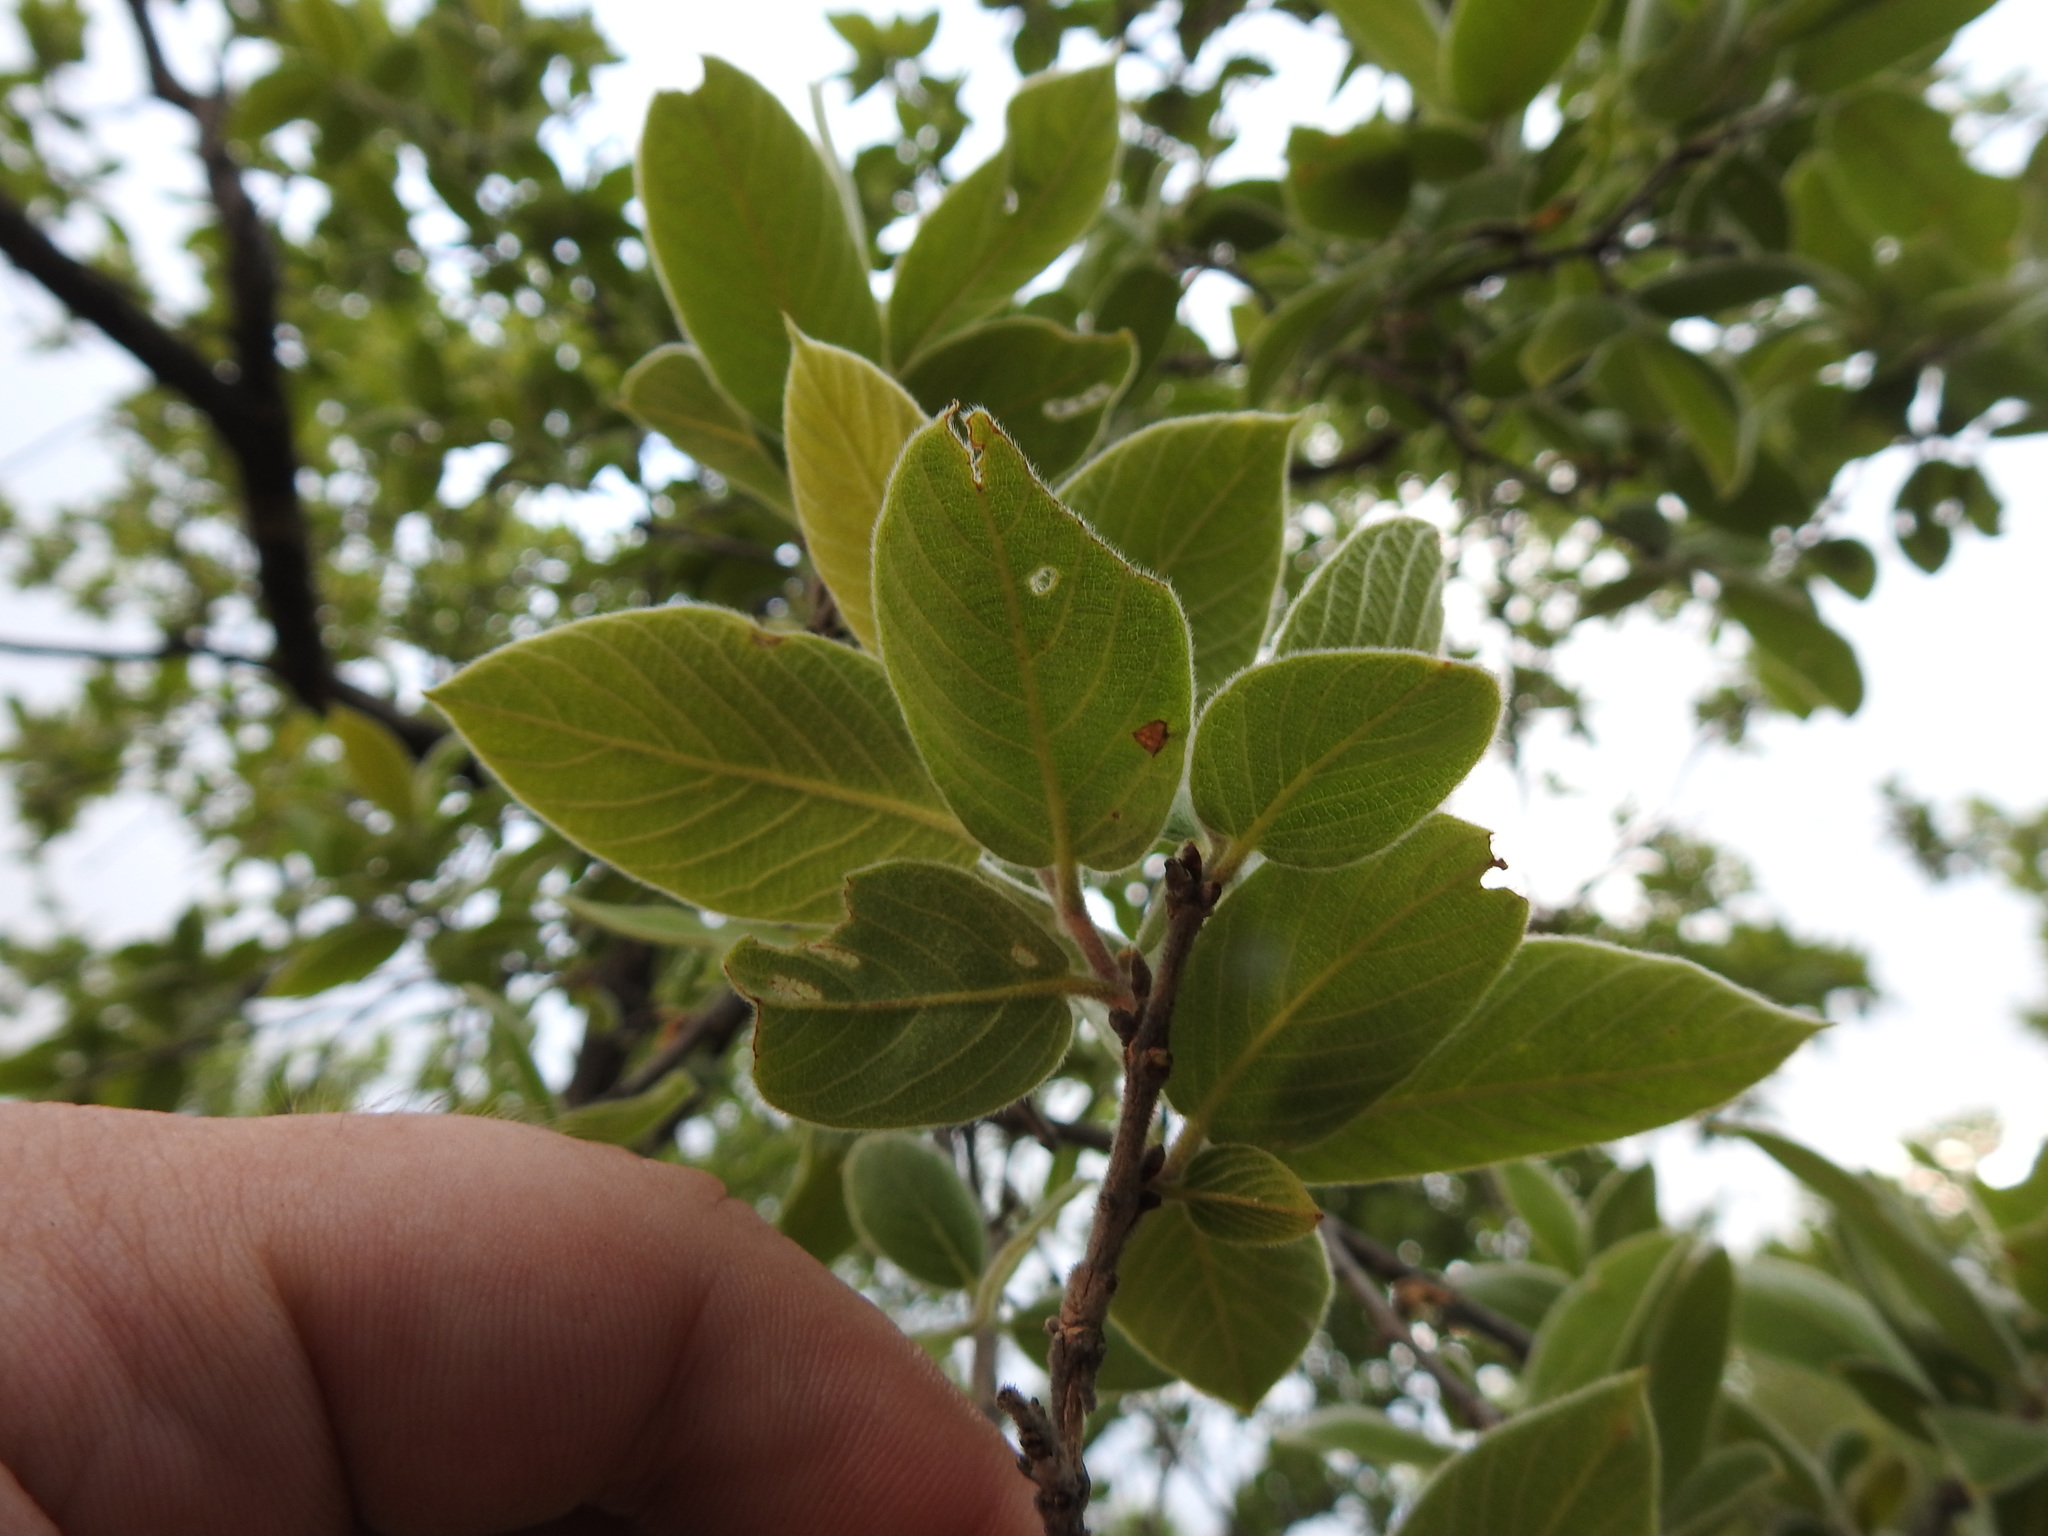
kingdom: Plantae
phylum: Tracheophyta
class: Magnoliopsida
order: Myrtales
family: Combretaceae
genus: Combretum
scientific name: Combretum molle
